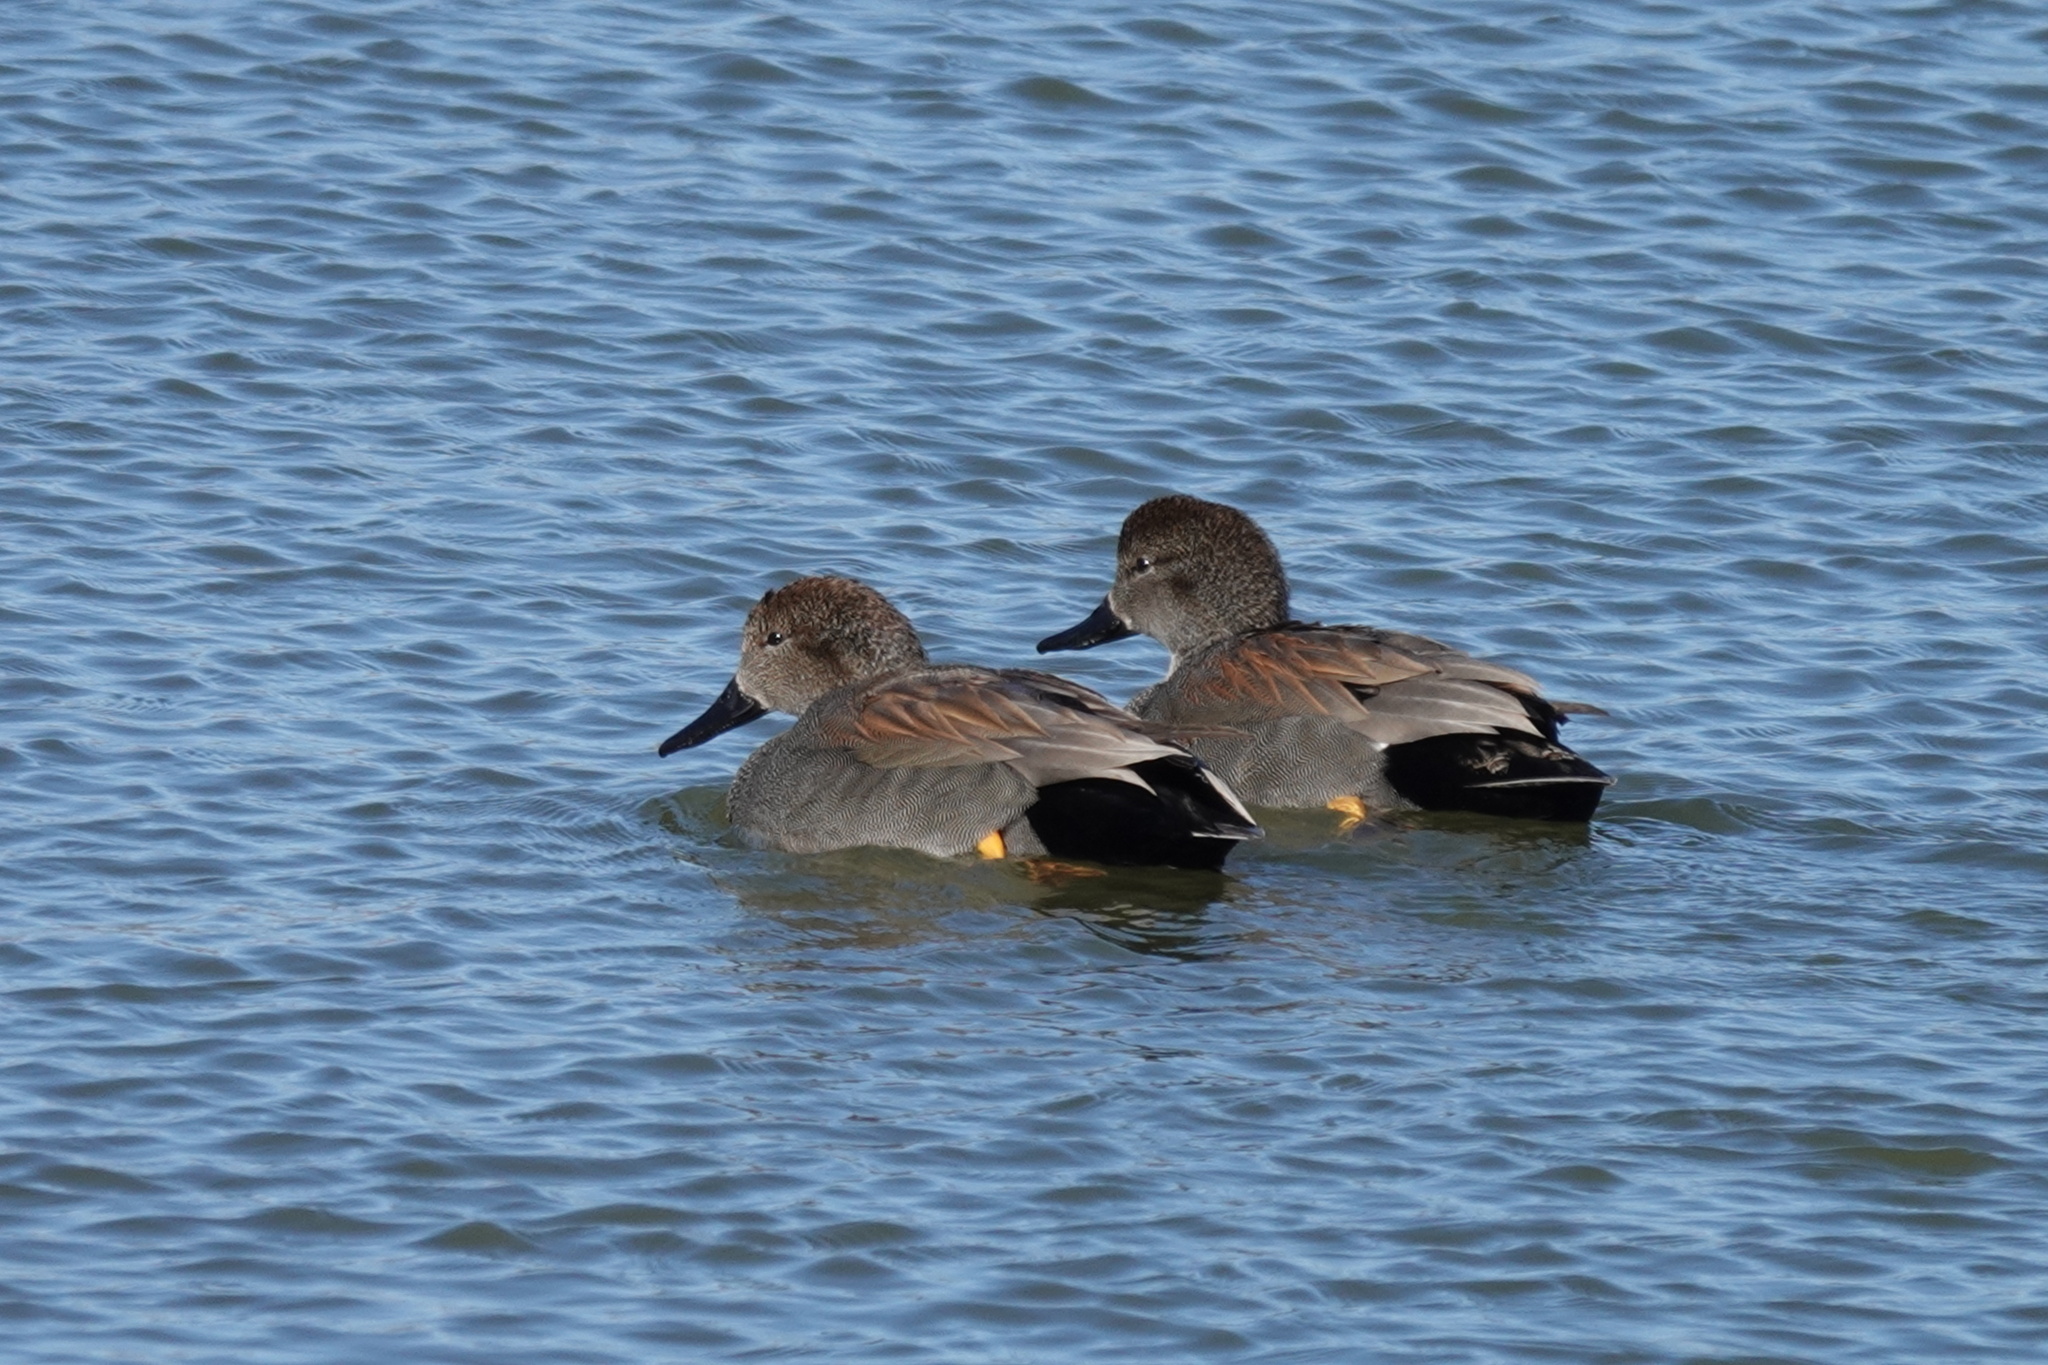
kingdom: Animalia
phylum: Chordata
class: Aves
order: Anseriformes
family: Anatidae
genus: Mareca
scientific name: Mareca strepera
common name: Gadwall
